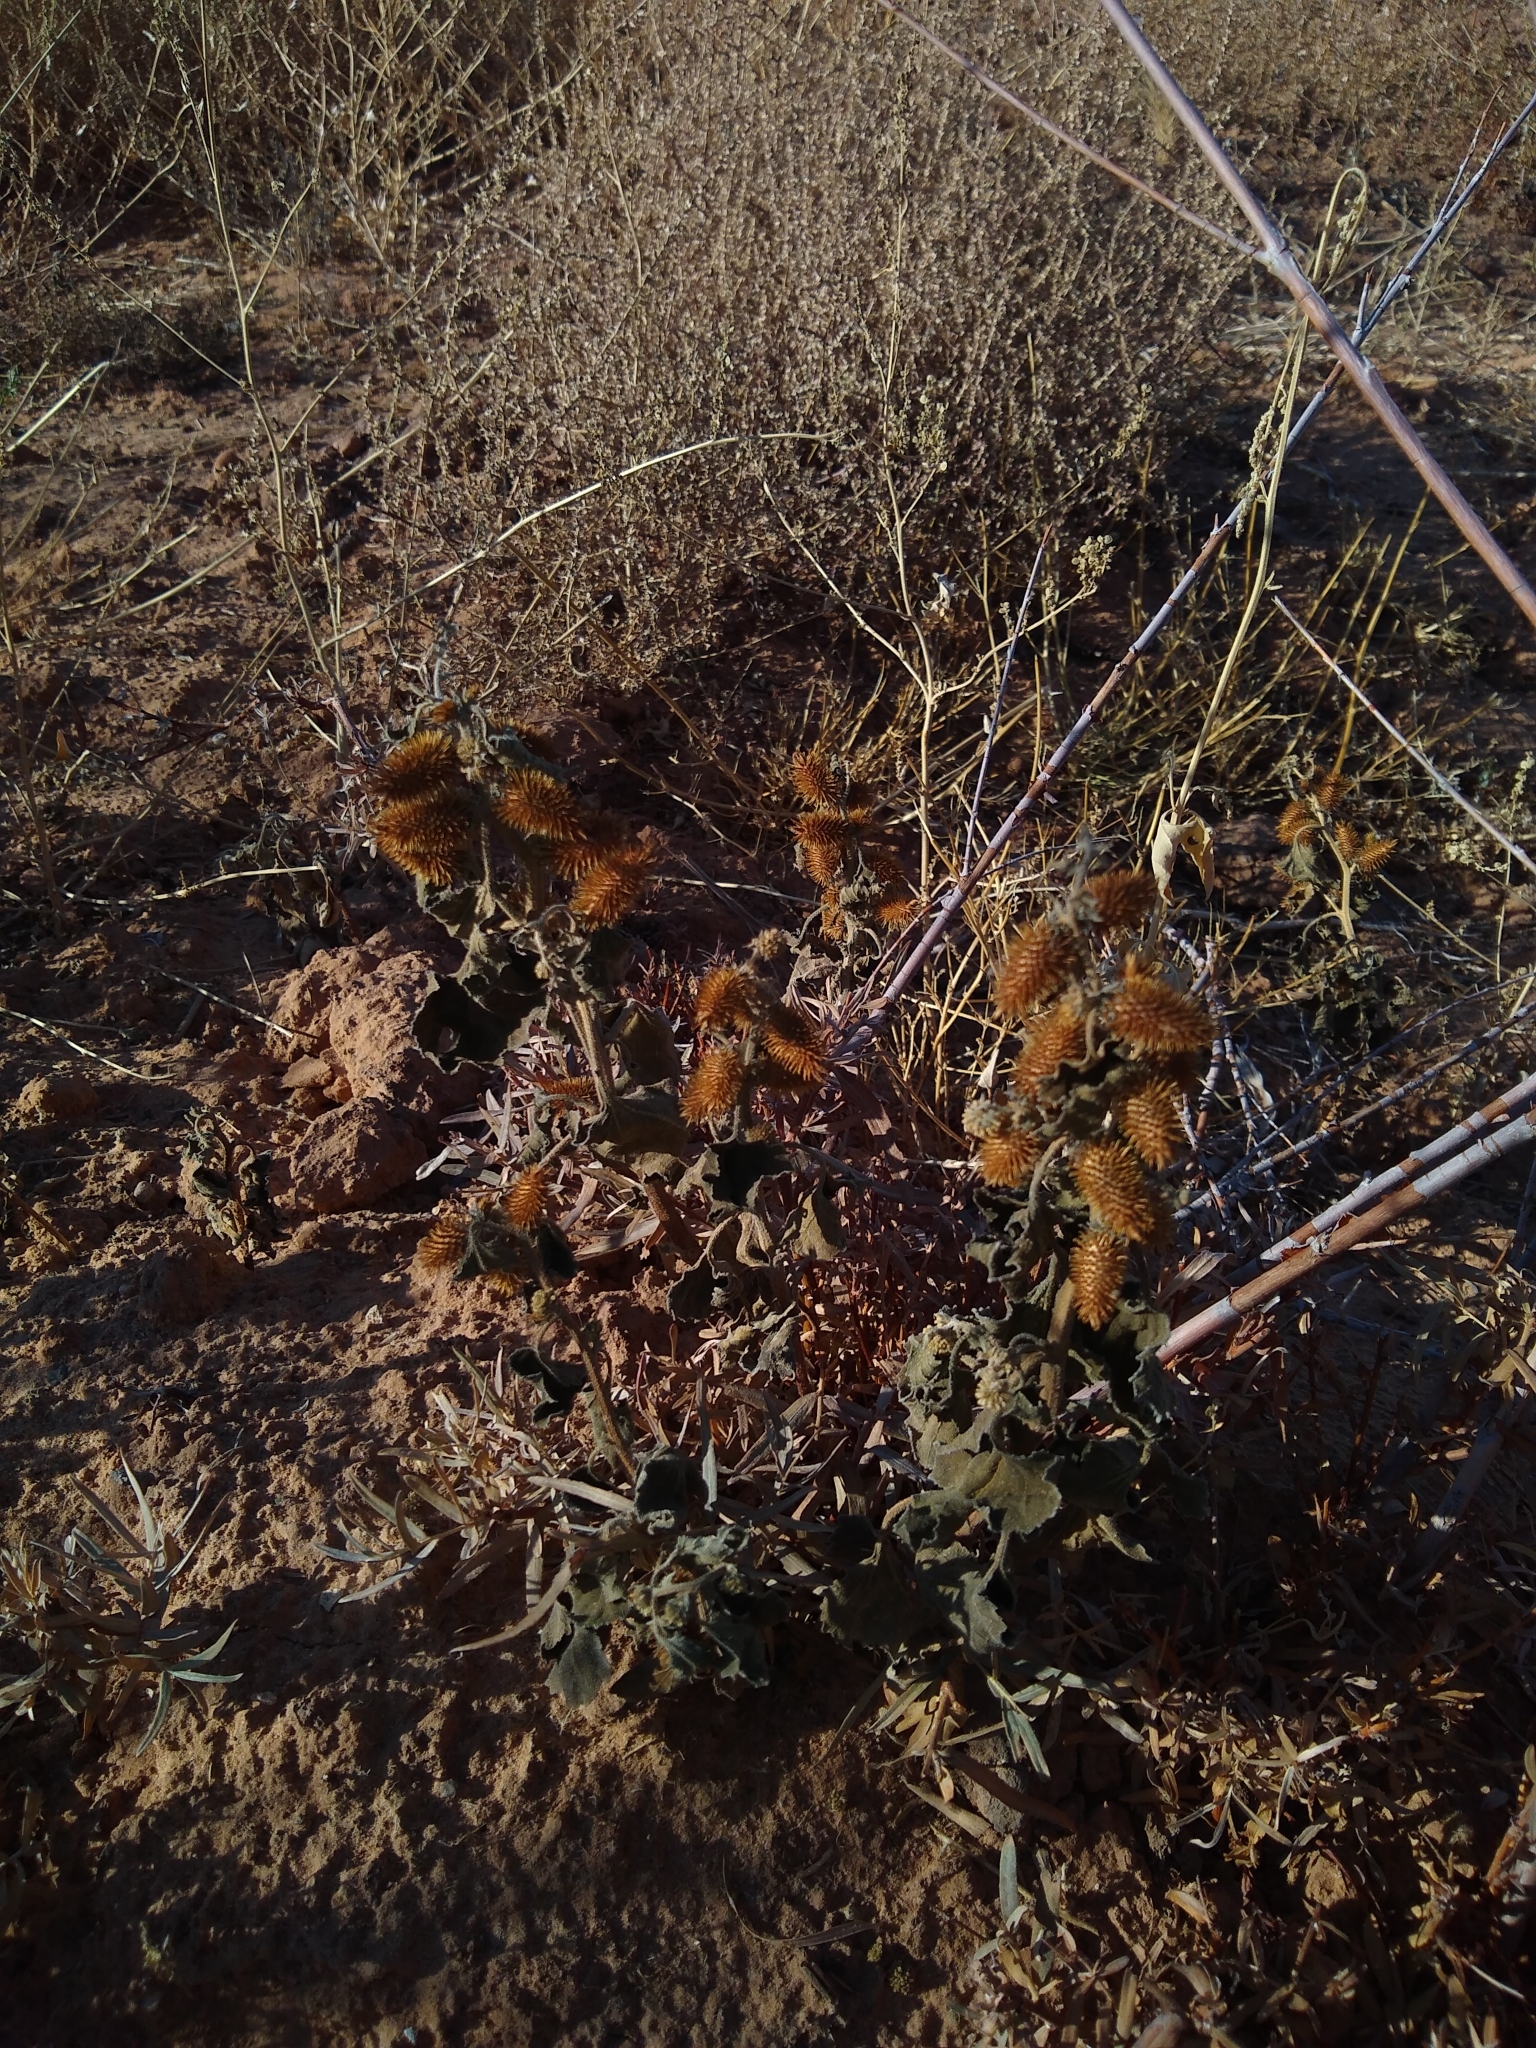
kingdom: Plantae
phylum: Tracheophyta
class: Magnoliopsida
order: Asterales
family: Asteraceae
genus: Xanthium
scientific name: Xanthium strumarium
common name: Rough cocklebur
